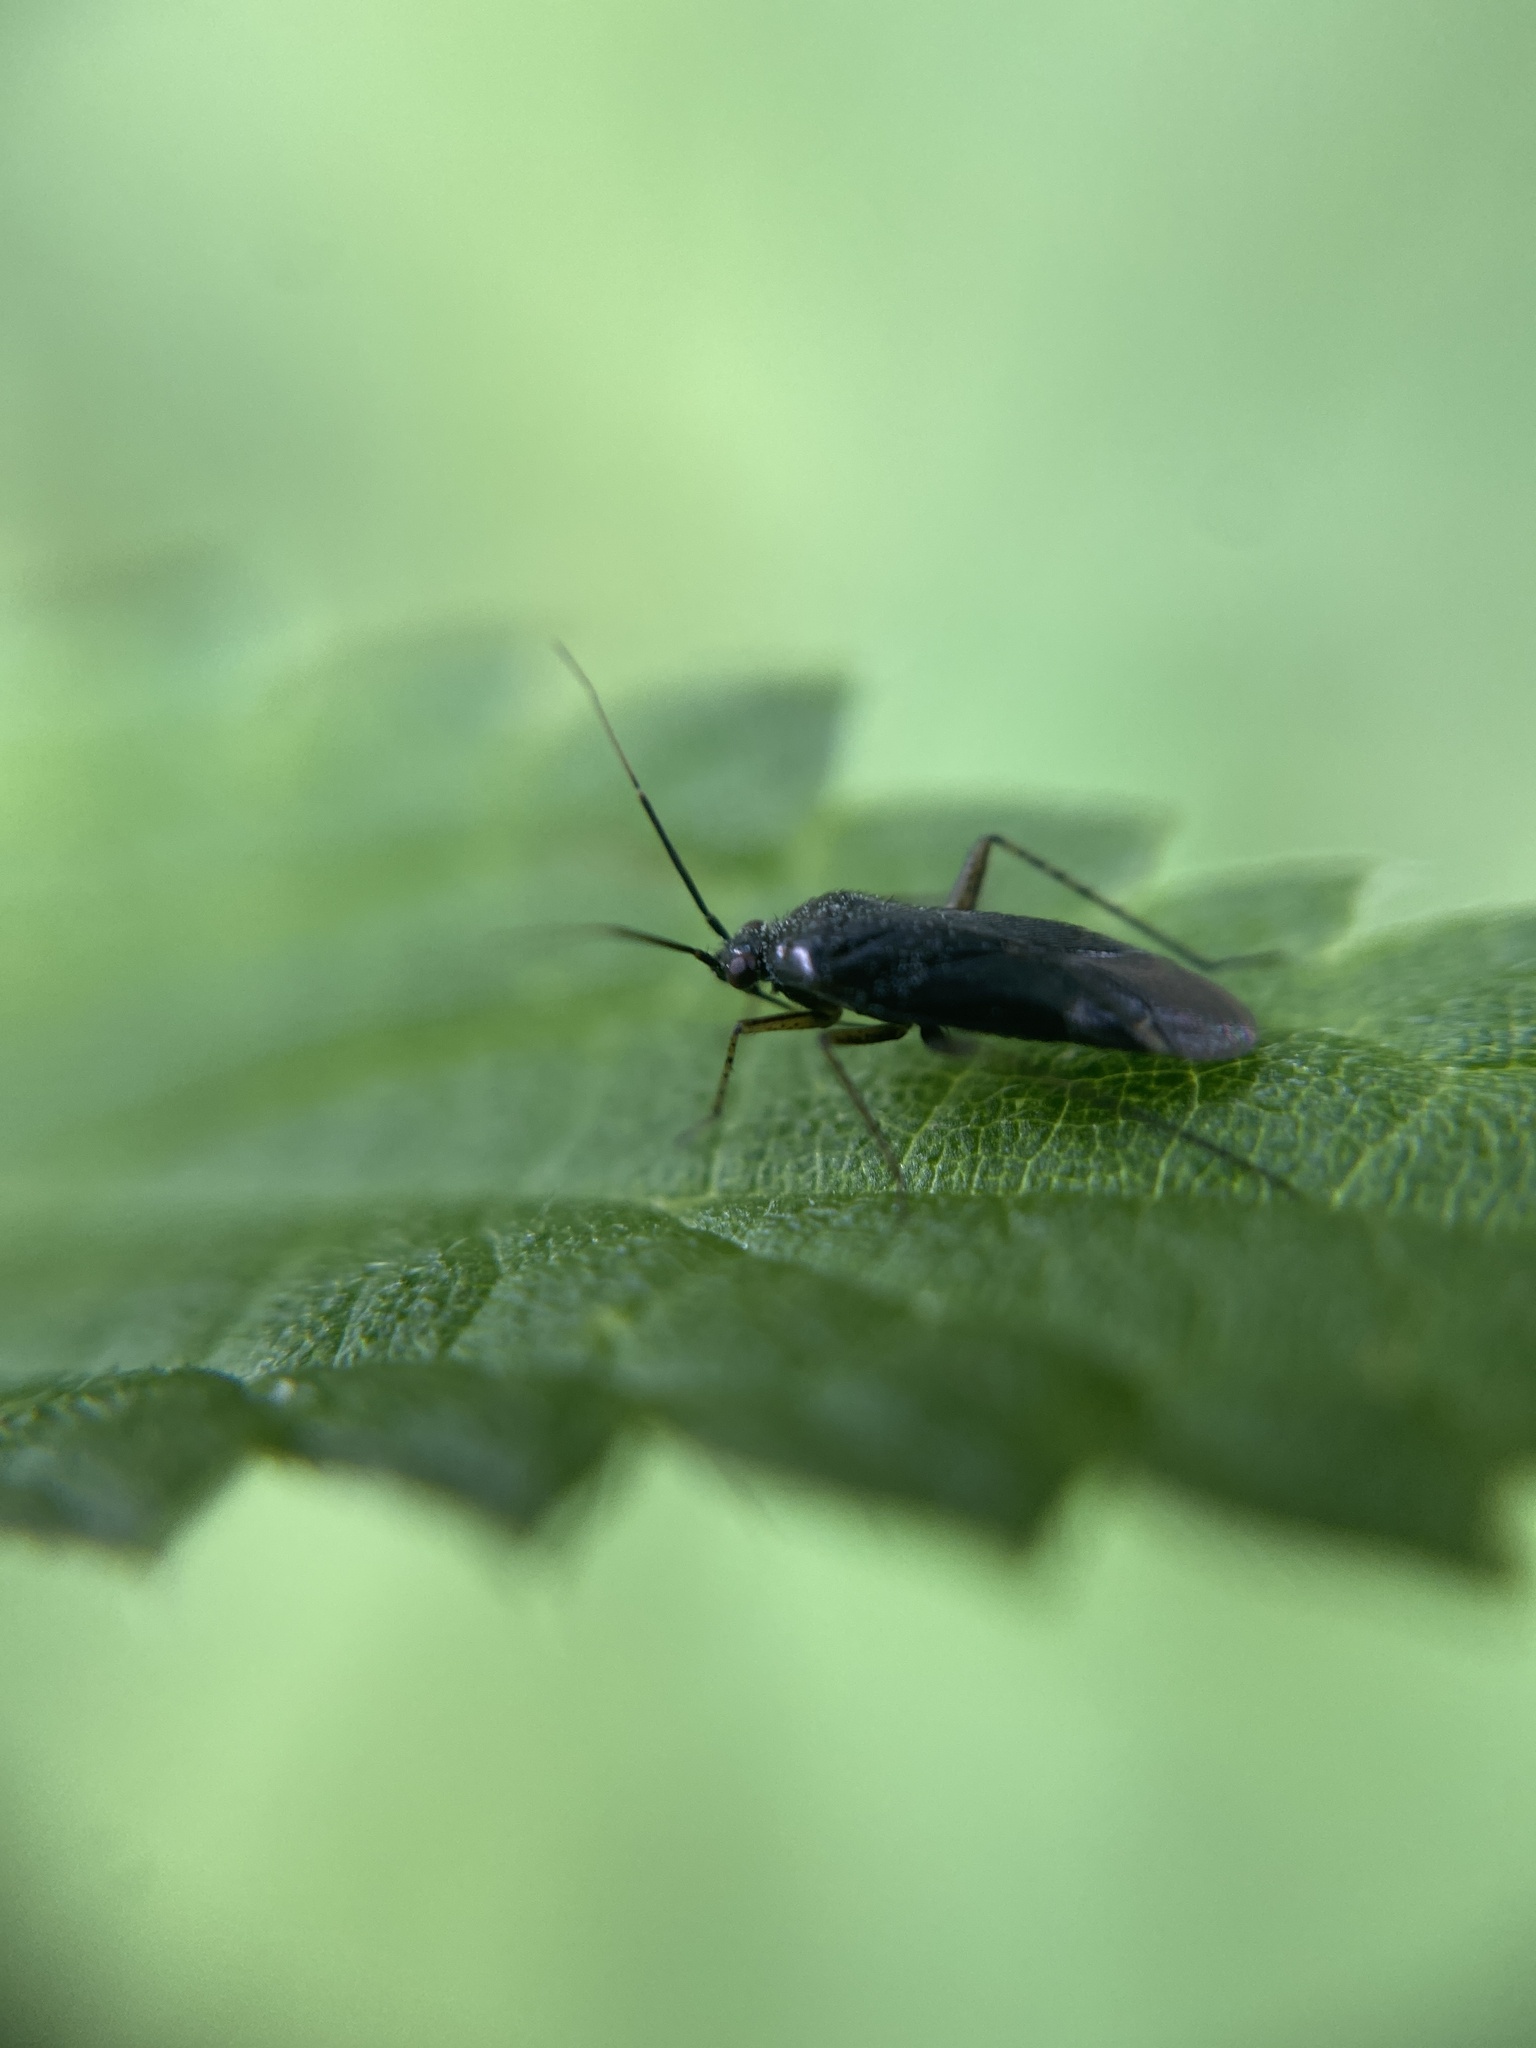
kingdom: Animalia
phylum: Arthropoda
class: Insecta
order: Hemiptera
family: Miridae
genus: Plagiognathus
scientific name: Plagiognathus arbustorum
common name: Plant bug
